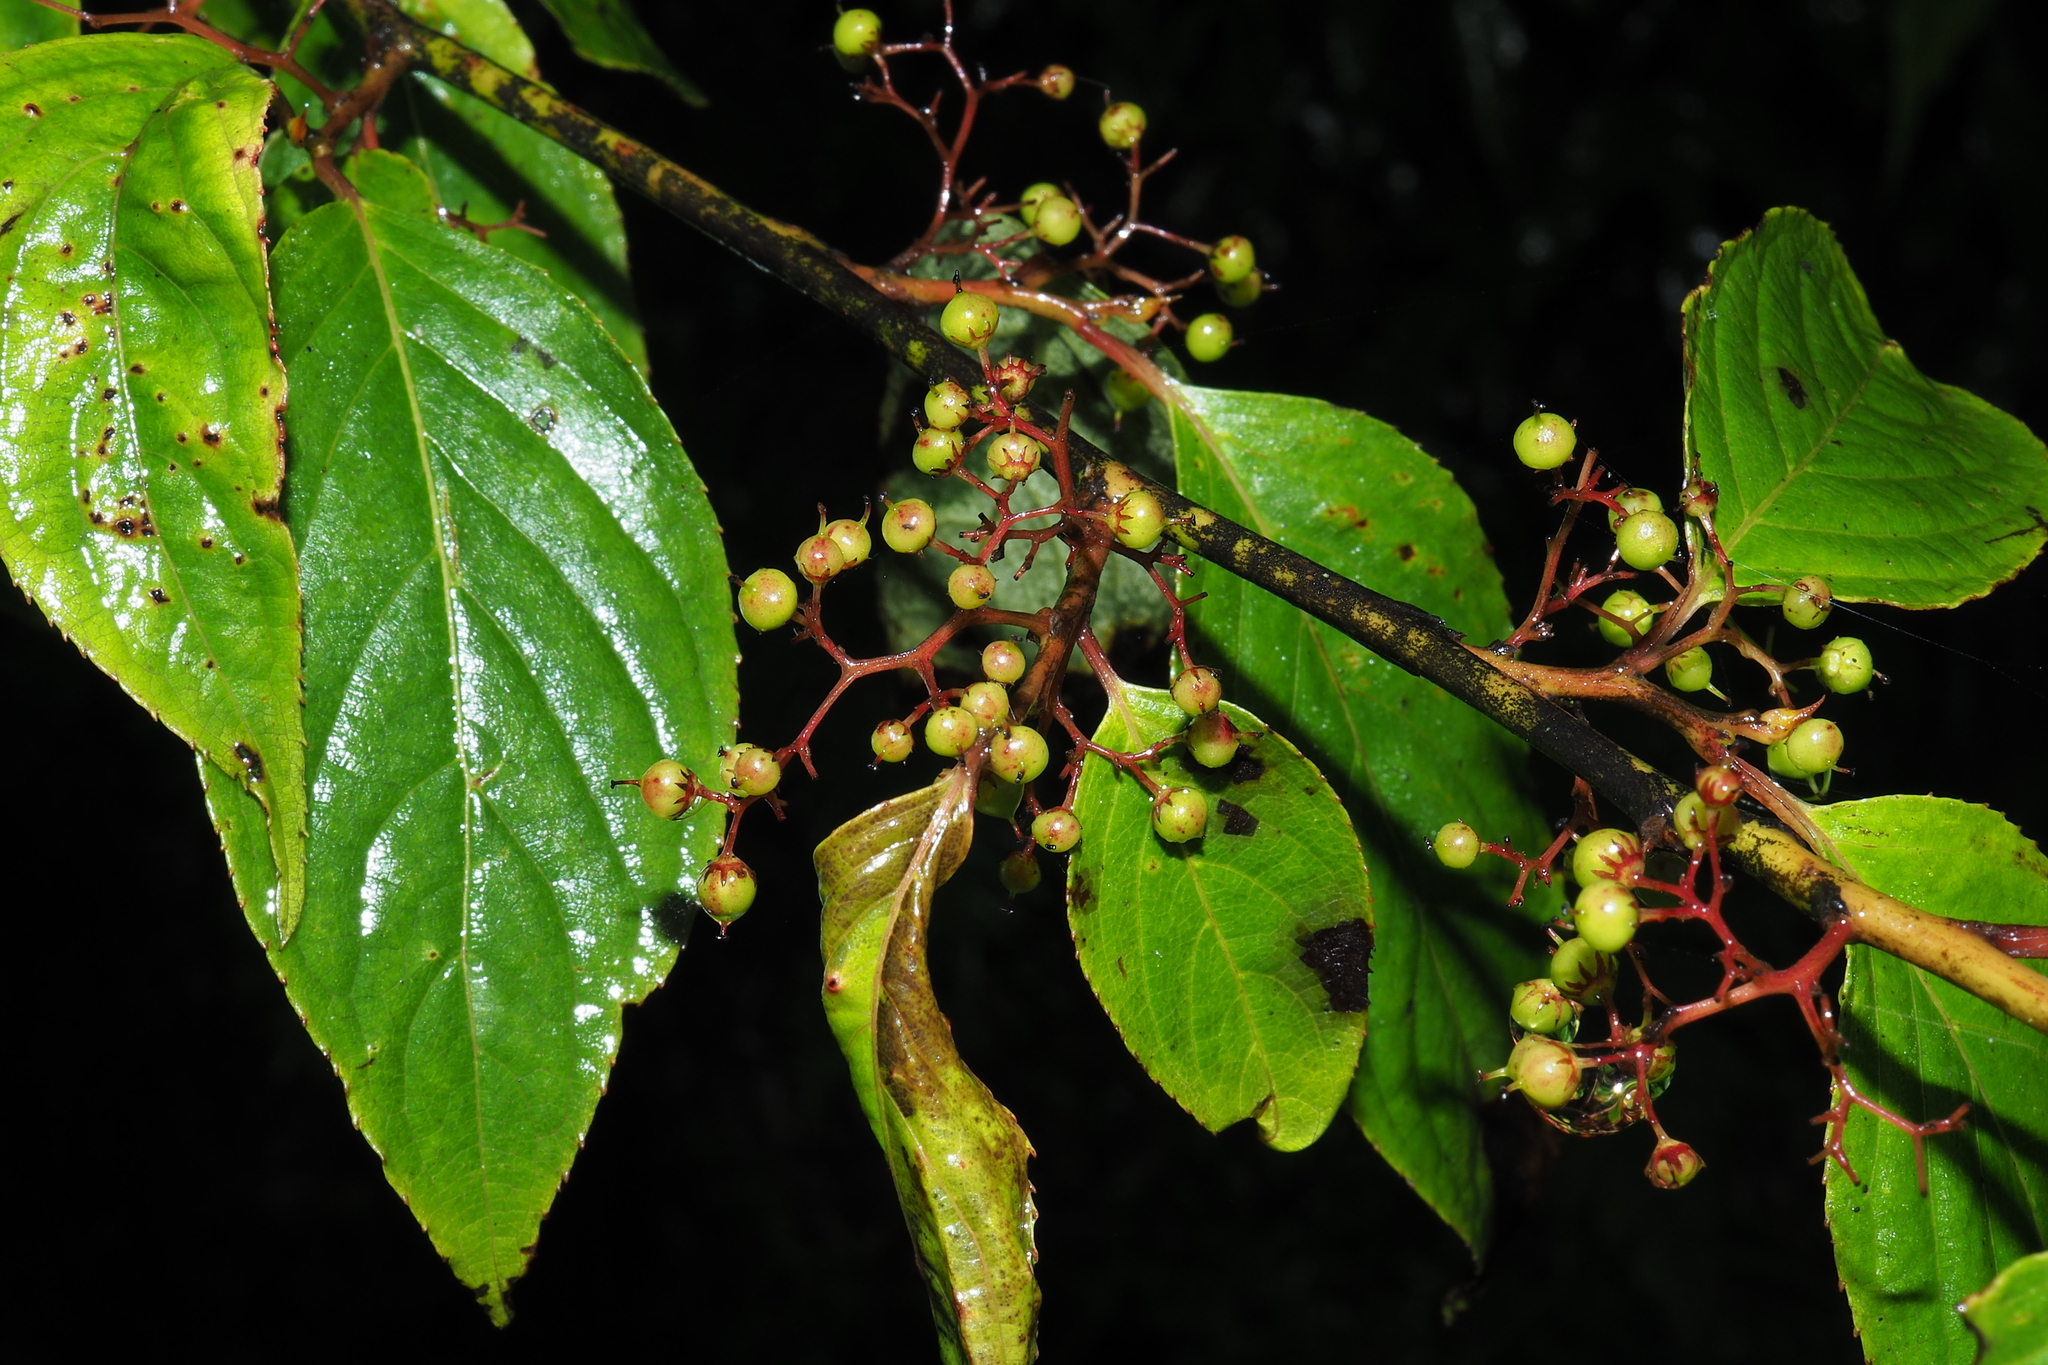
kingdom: Plantae
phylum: Tracheophyta
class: Magnoliopsida
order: Huerteales
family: Dipentodontaceae
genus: Perrottetia
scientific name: Perrottetia arisanensis
